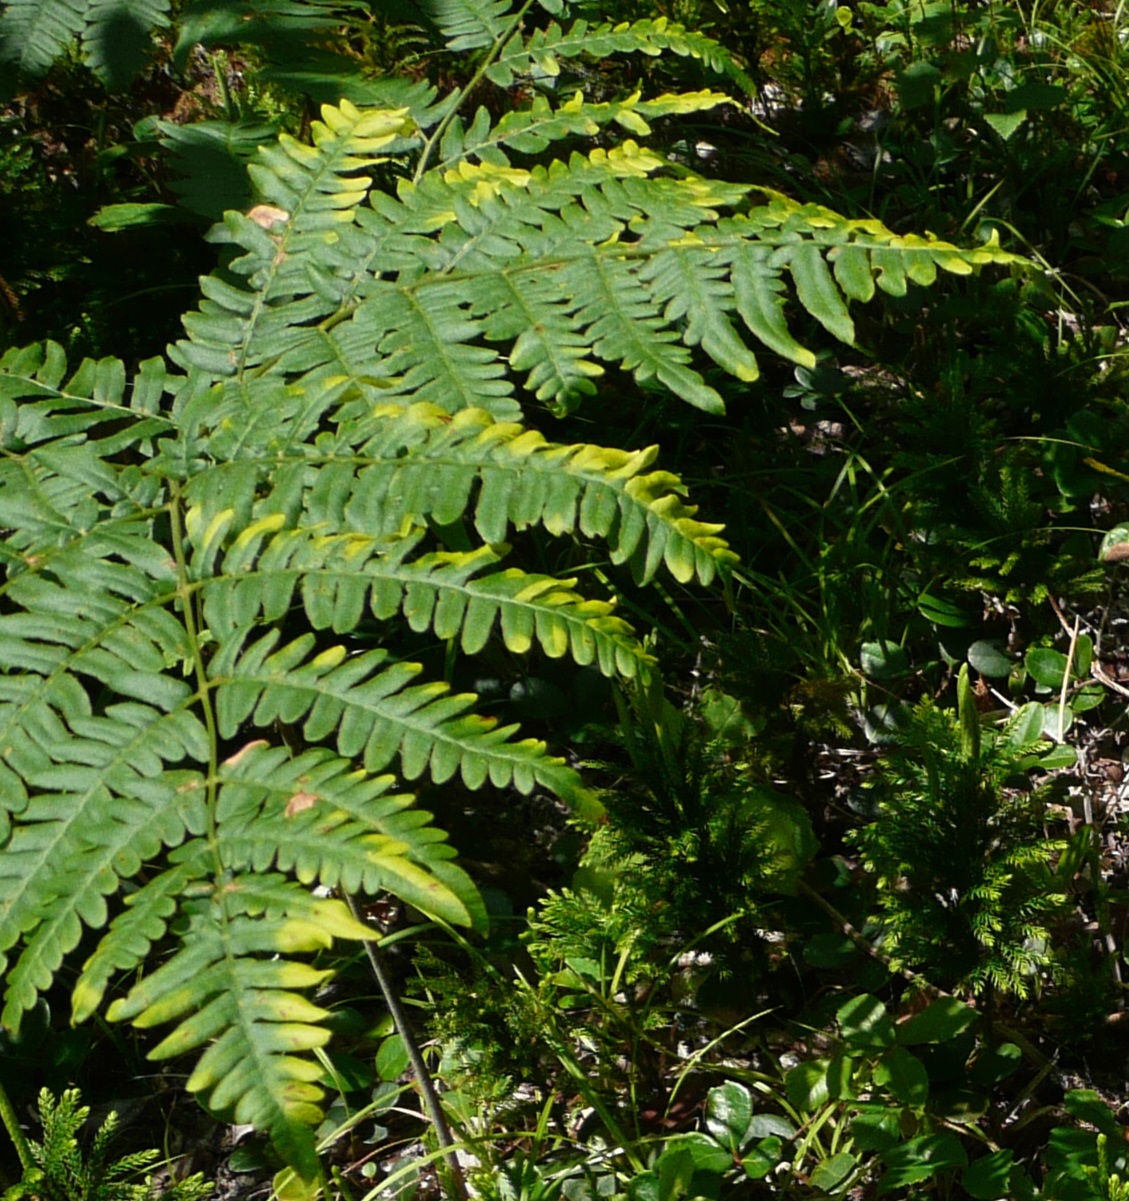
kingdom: Plantae
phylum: Tracheophyta
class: Polypodiopsida
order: Polypodiales
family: Dennstaedtiaceae
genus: Pteridium
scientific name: Pteridium aquilinum
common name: Bracken
